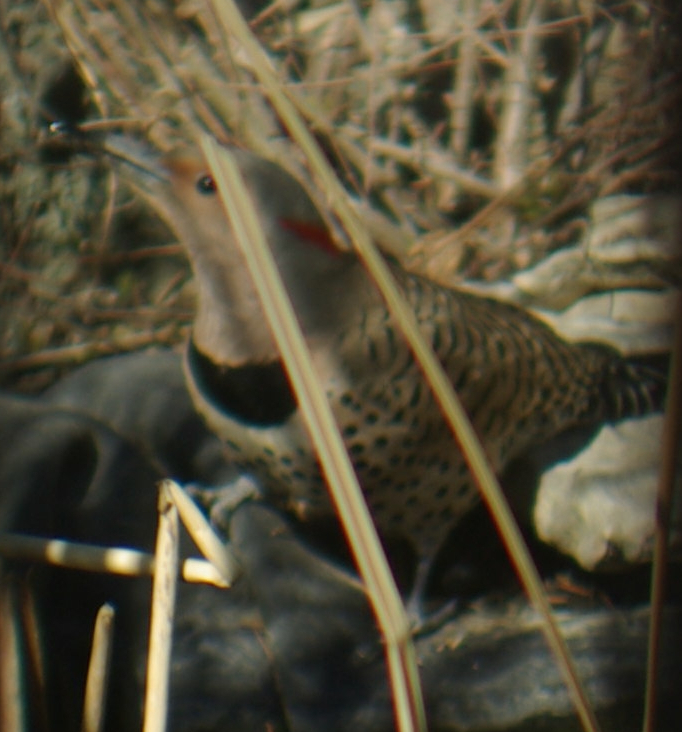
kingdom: Animalia
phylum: Chordata
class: Aves
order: Piciformes
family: Picidae
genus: Colaptes
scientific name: Colaptes auratus
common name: Northern flicker
